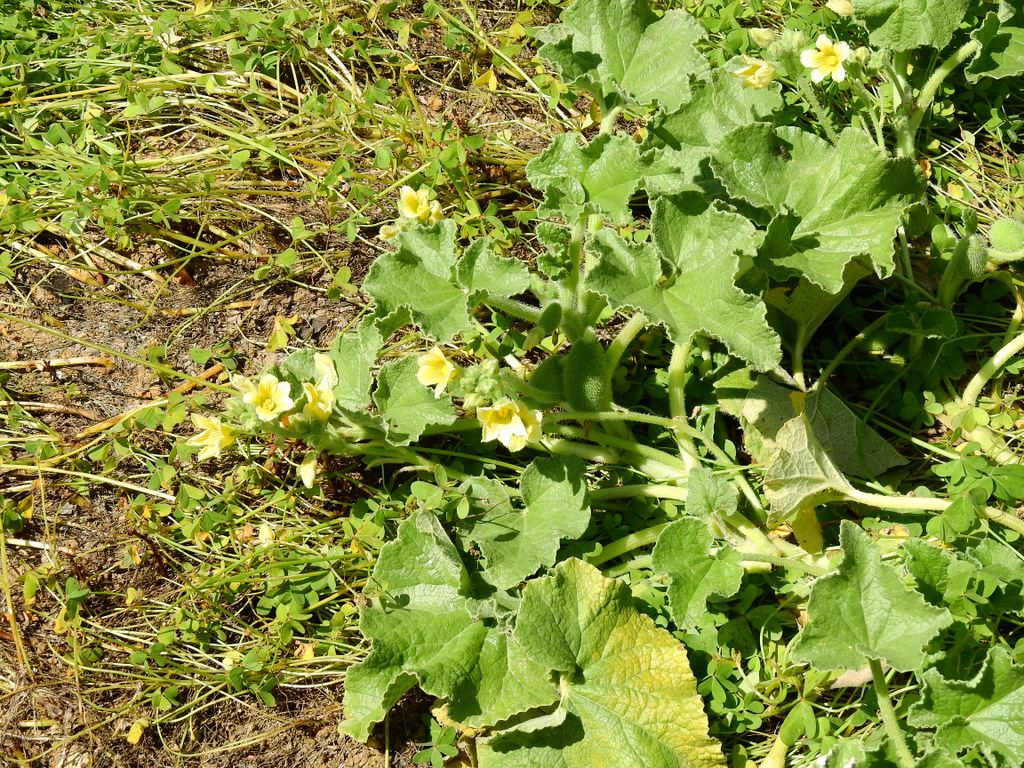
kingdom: Plantae
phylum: Tracheophyta
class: Magnoliopsida
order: Cucurbitales
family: Cucurbitaceae
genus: Ecballium
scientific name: Ecballium elaterium
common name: Squirting cucumber
